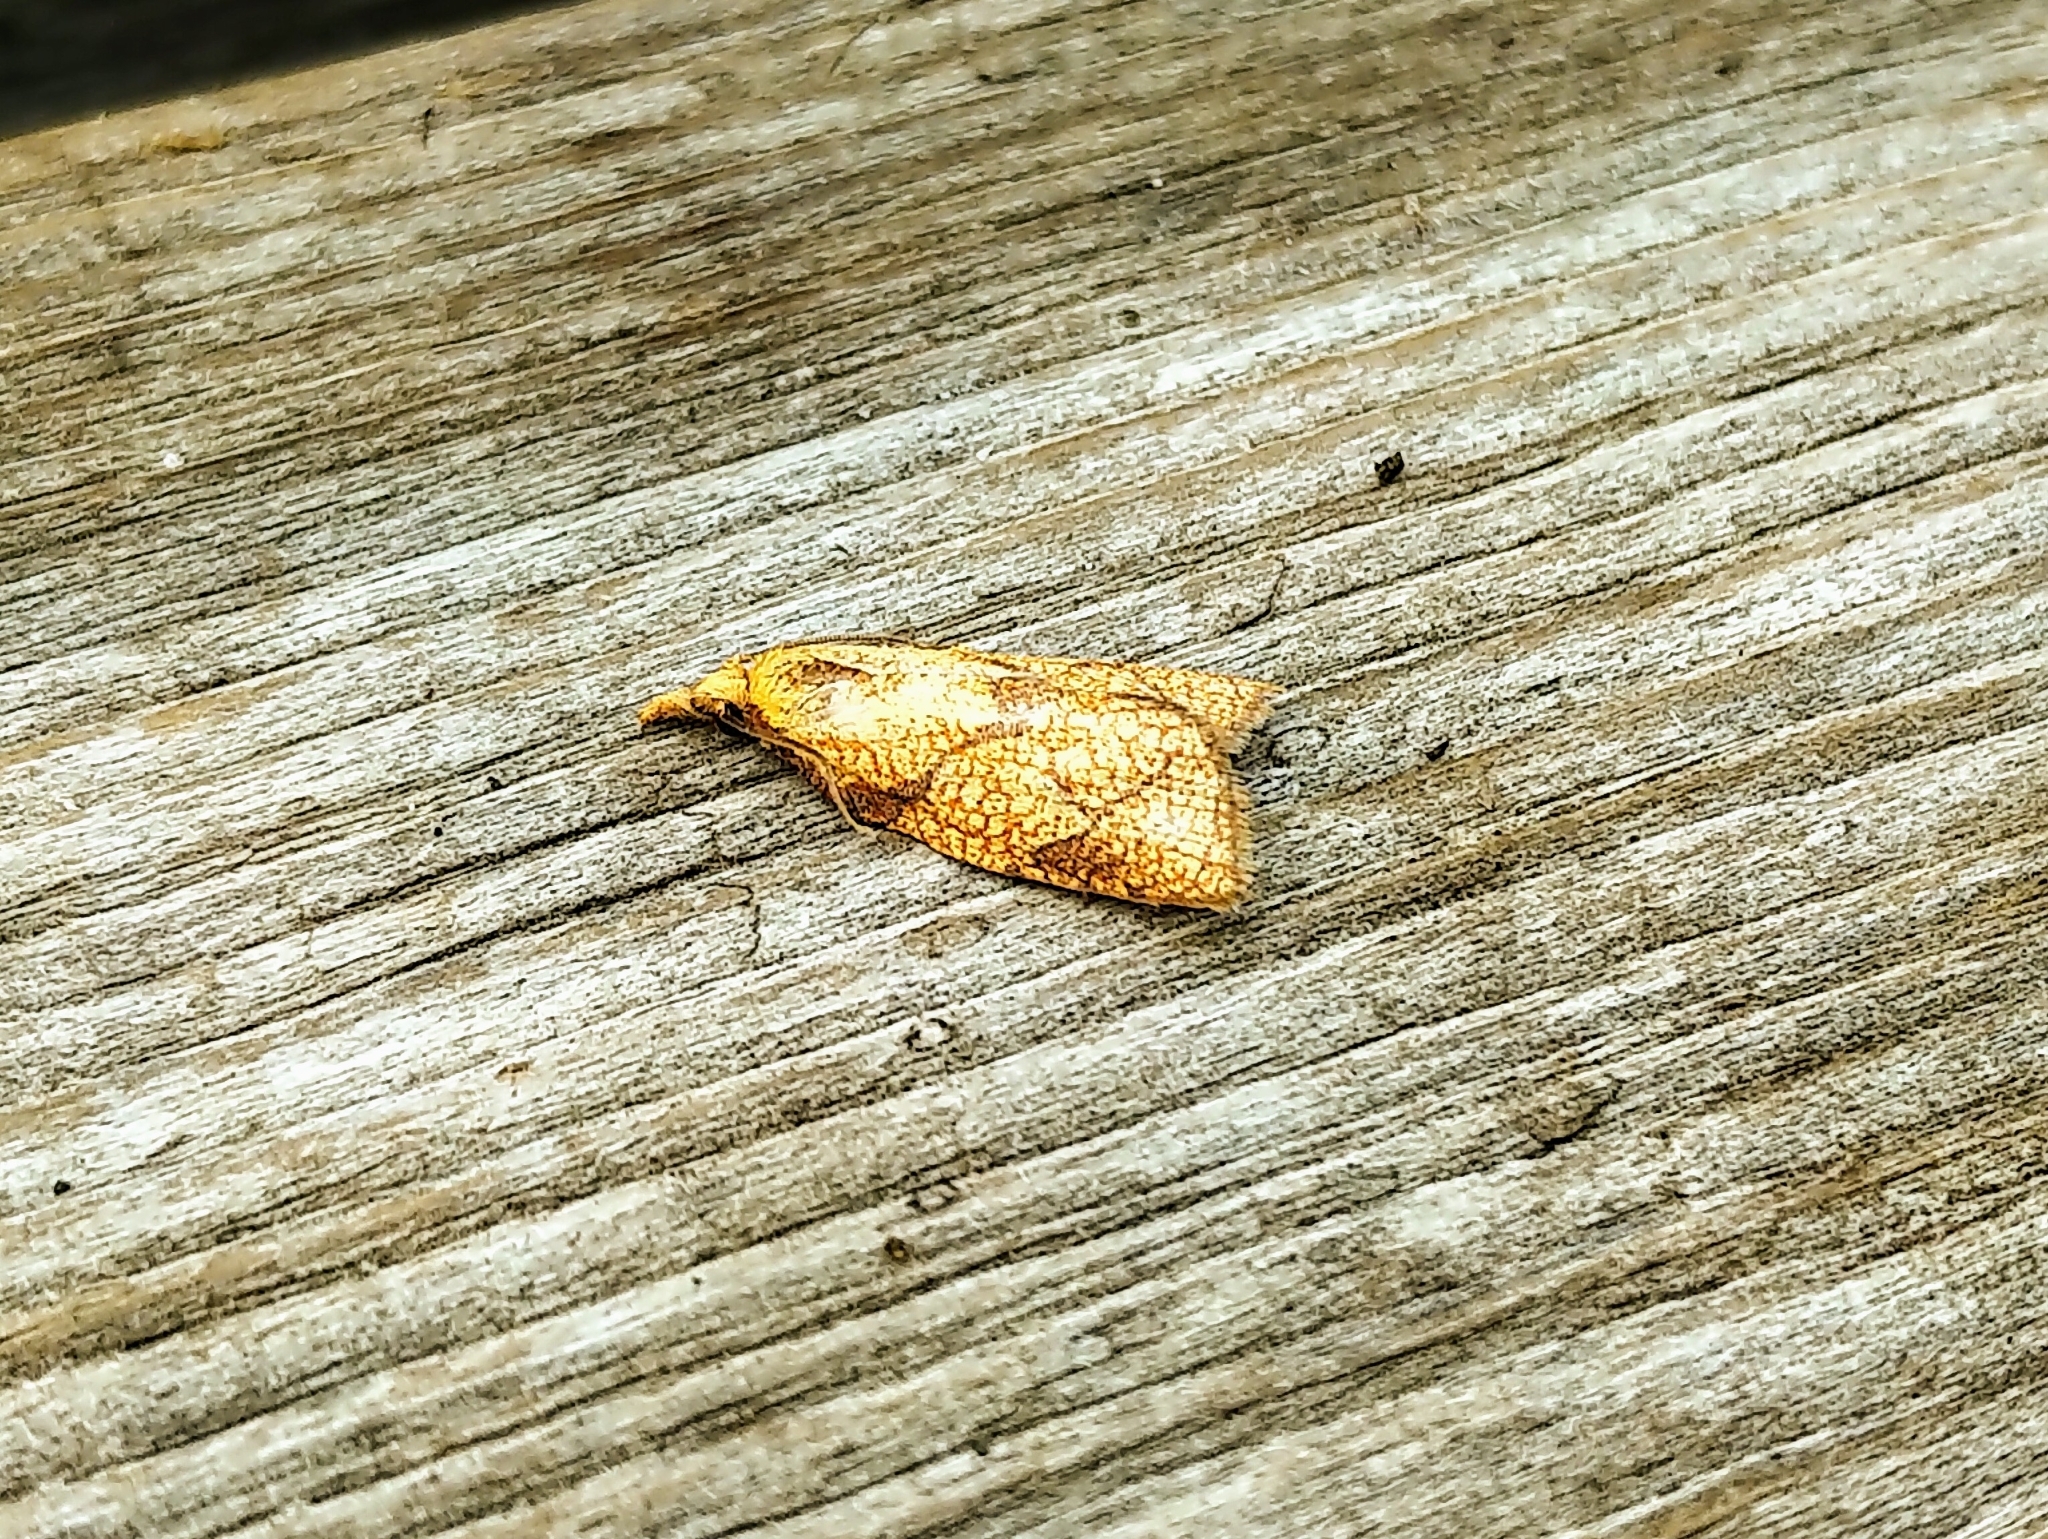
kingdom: Animalia
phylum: Arthropoda
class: Insecta
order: Lepidoptera
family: Tortricidae
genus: Cenopis
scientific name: Cenopis reticulatana
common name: Reticulated fruitworm moth
